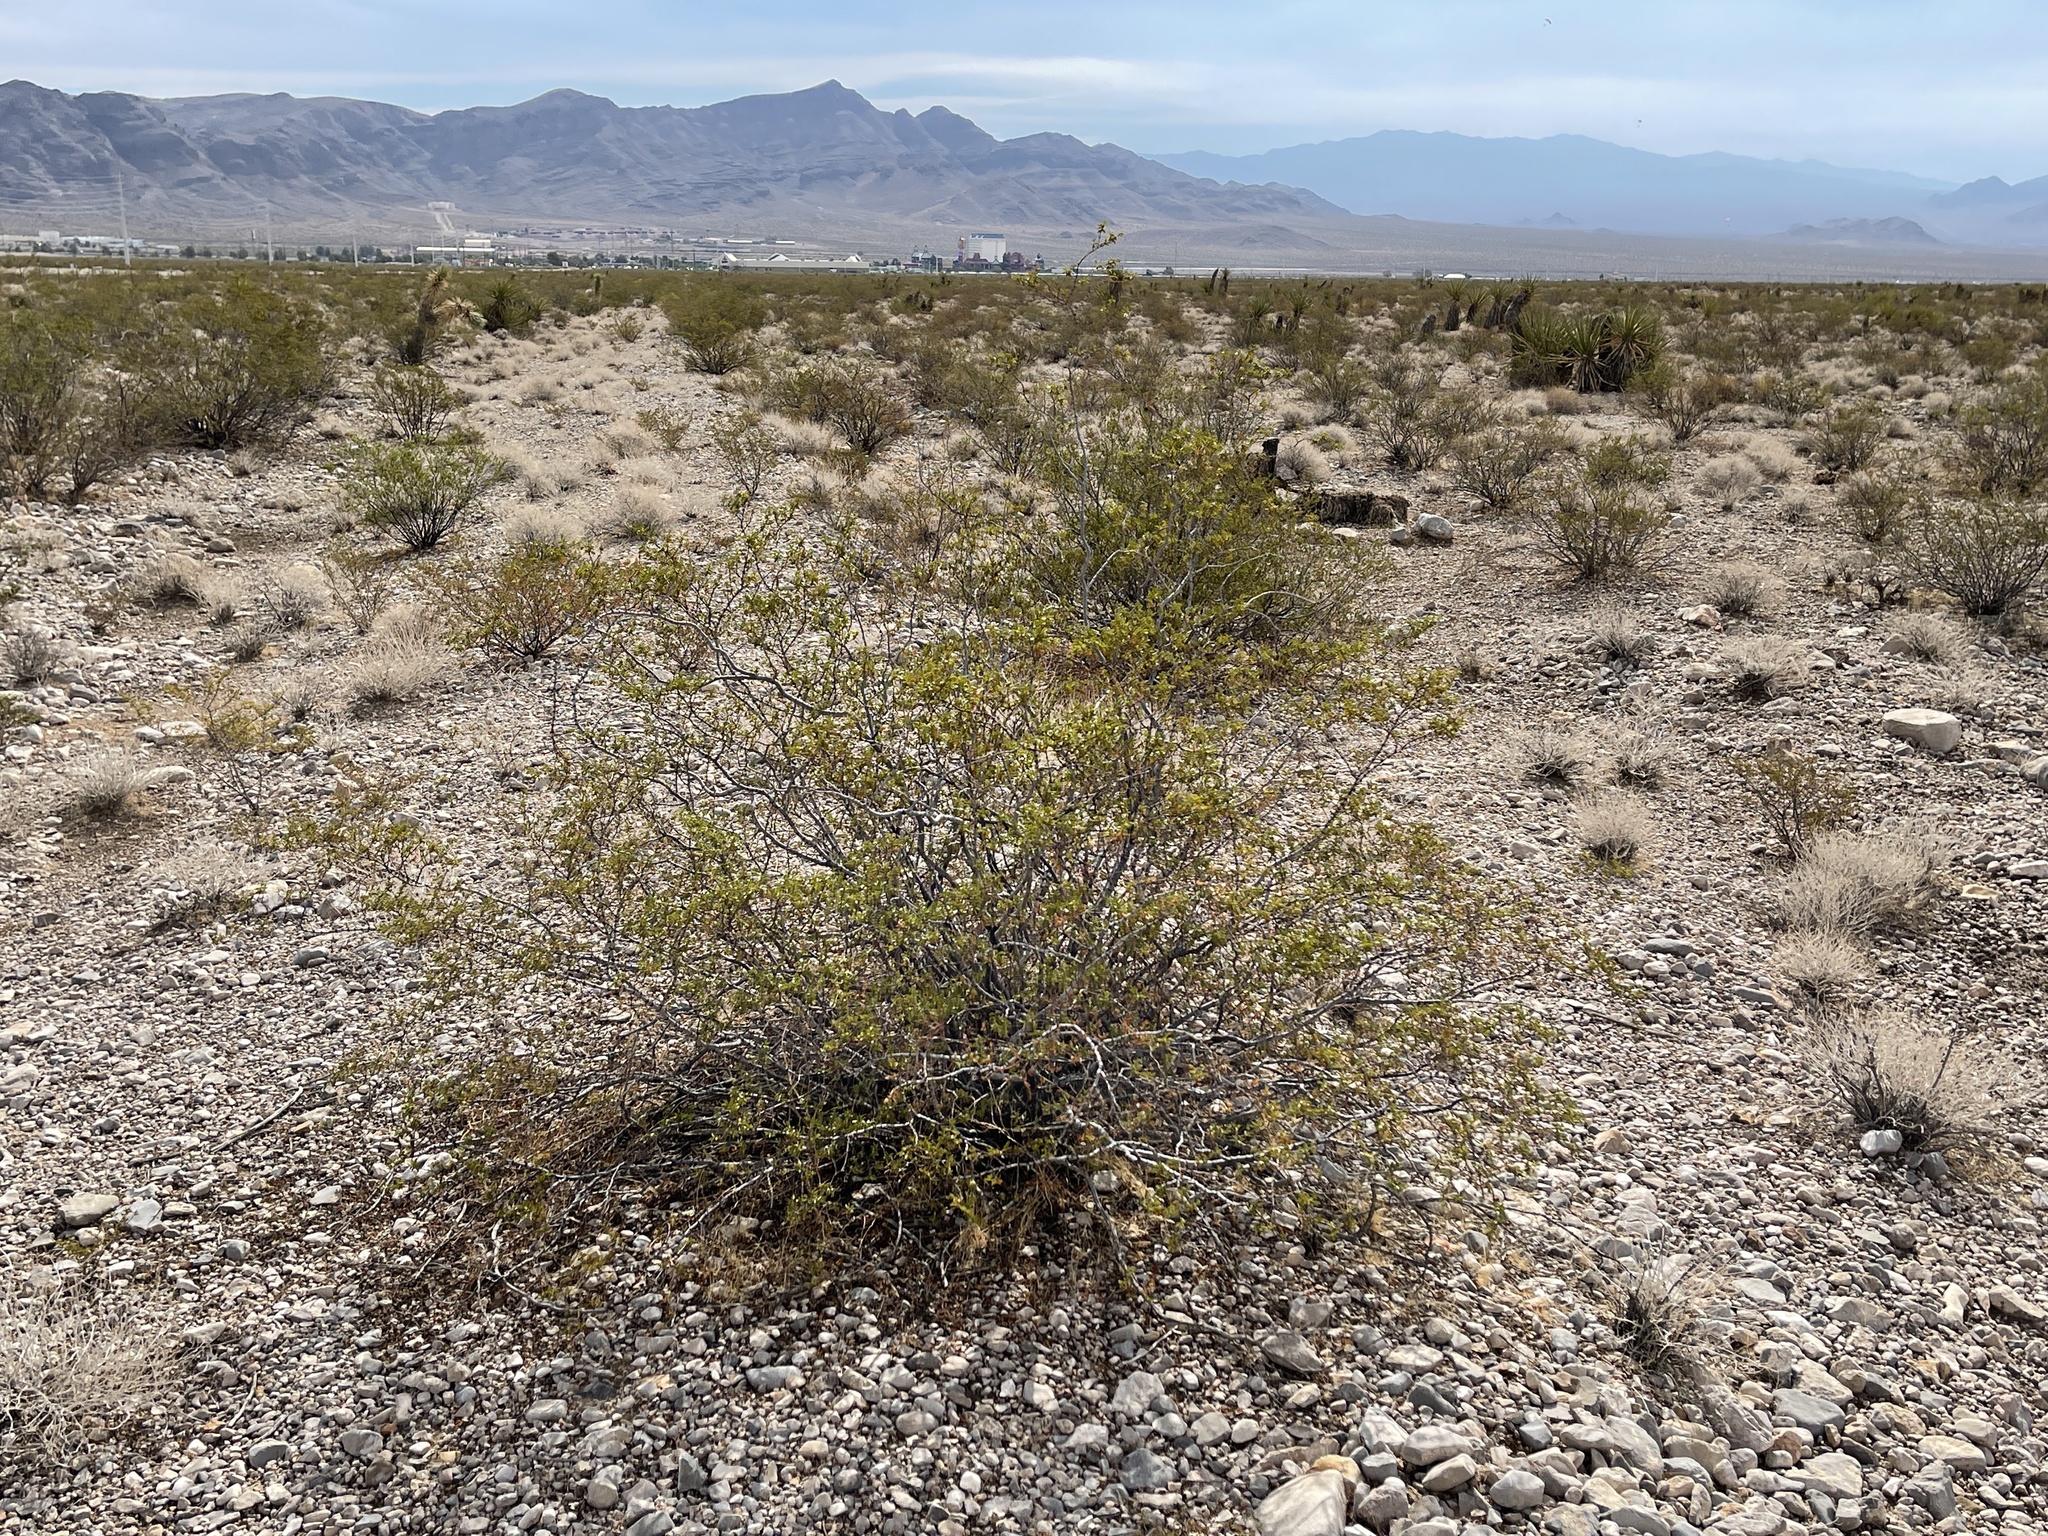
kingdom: Plantae
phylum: Tracheophyta
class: Magnoliopsida
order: Zygophyllales
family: Zygophyllaceae
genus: Larrea
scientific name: Larrea tridentata
